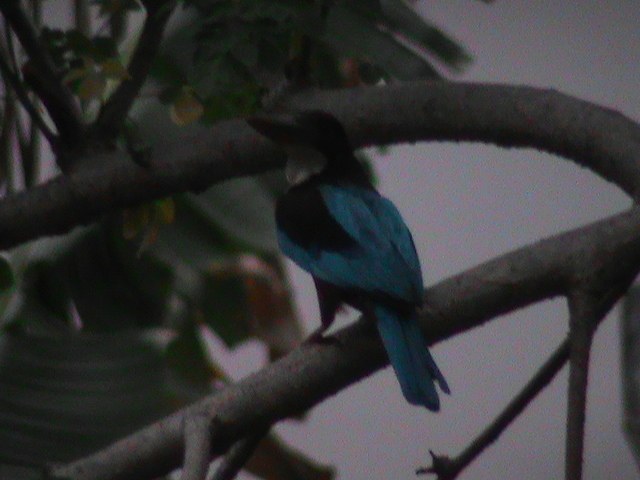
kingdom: Animalia
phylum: Chordata
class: Aves
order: Coraciiformes
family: Alcedinidae
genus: Halcyon
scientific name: Halcyon smyrnensis
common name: White-throated kingfisher
